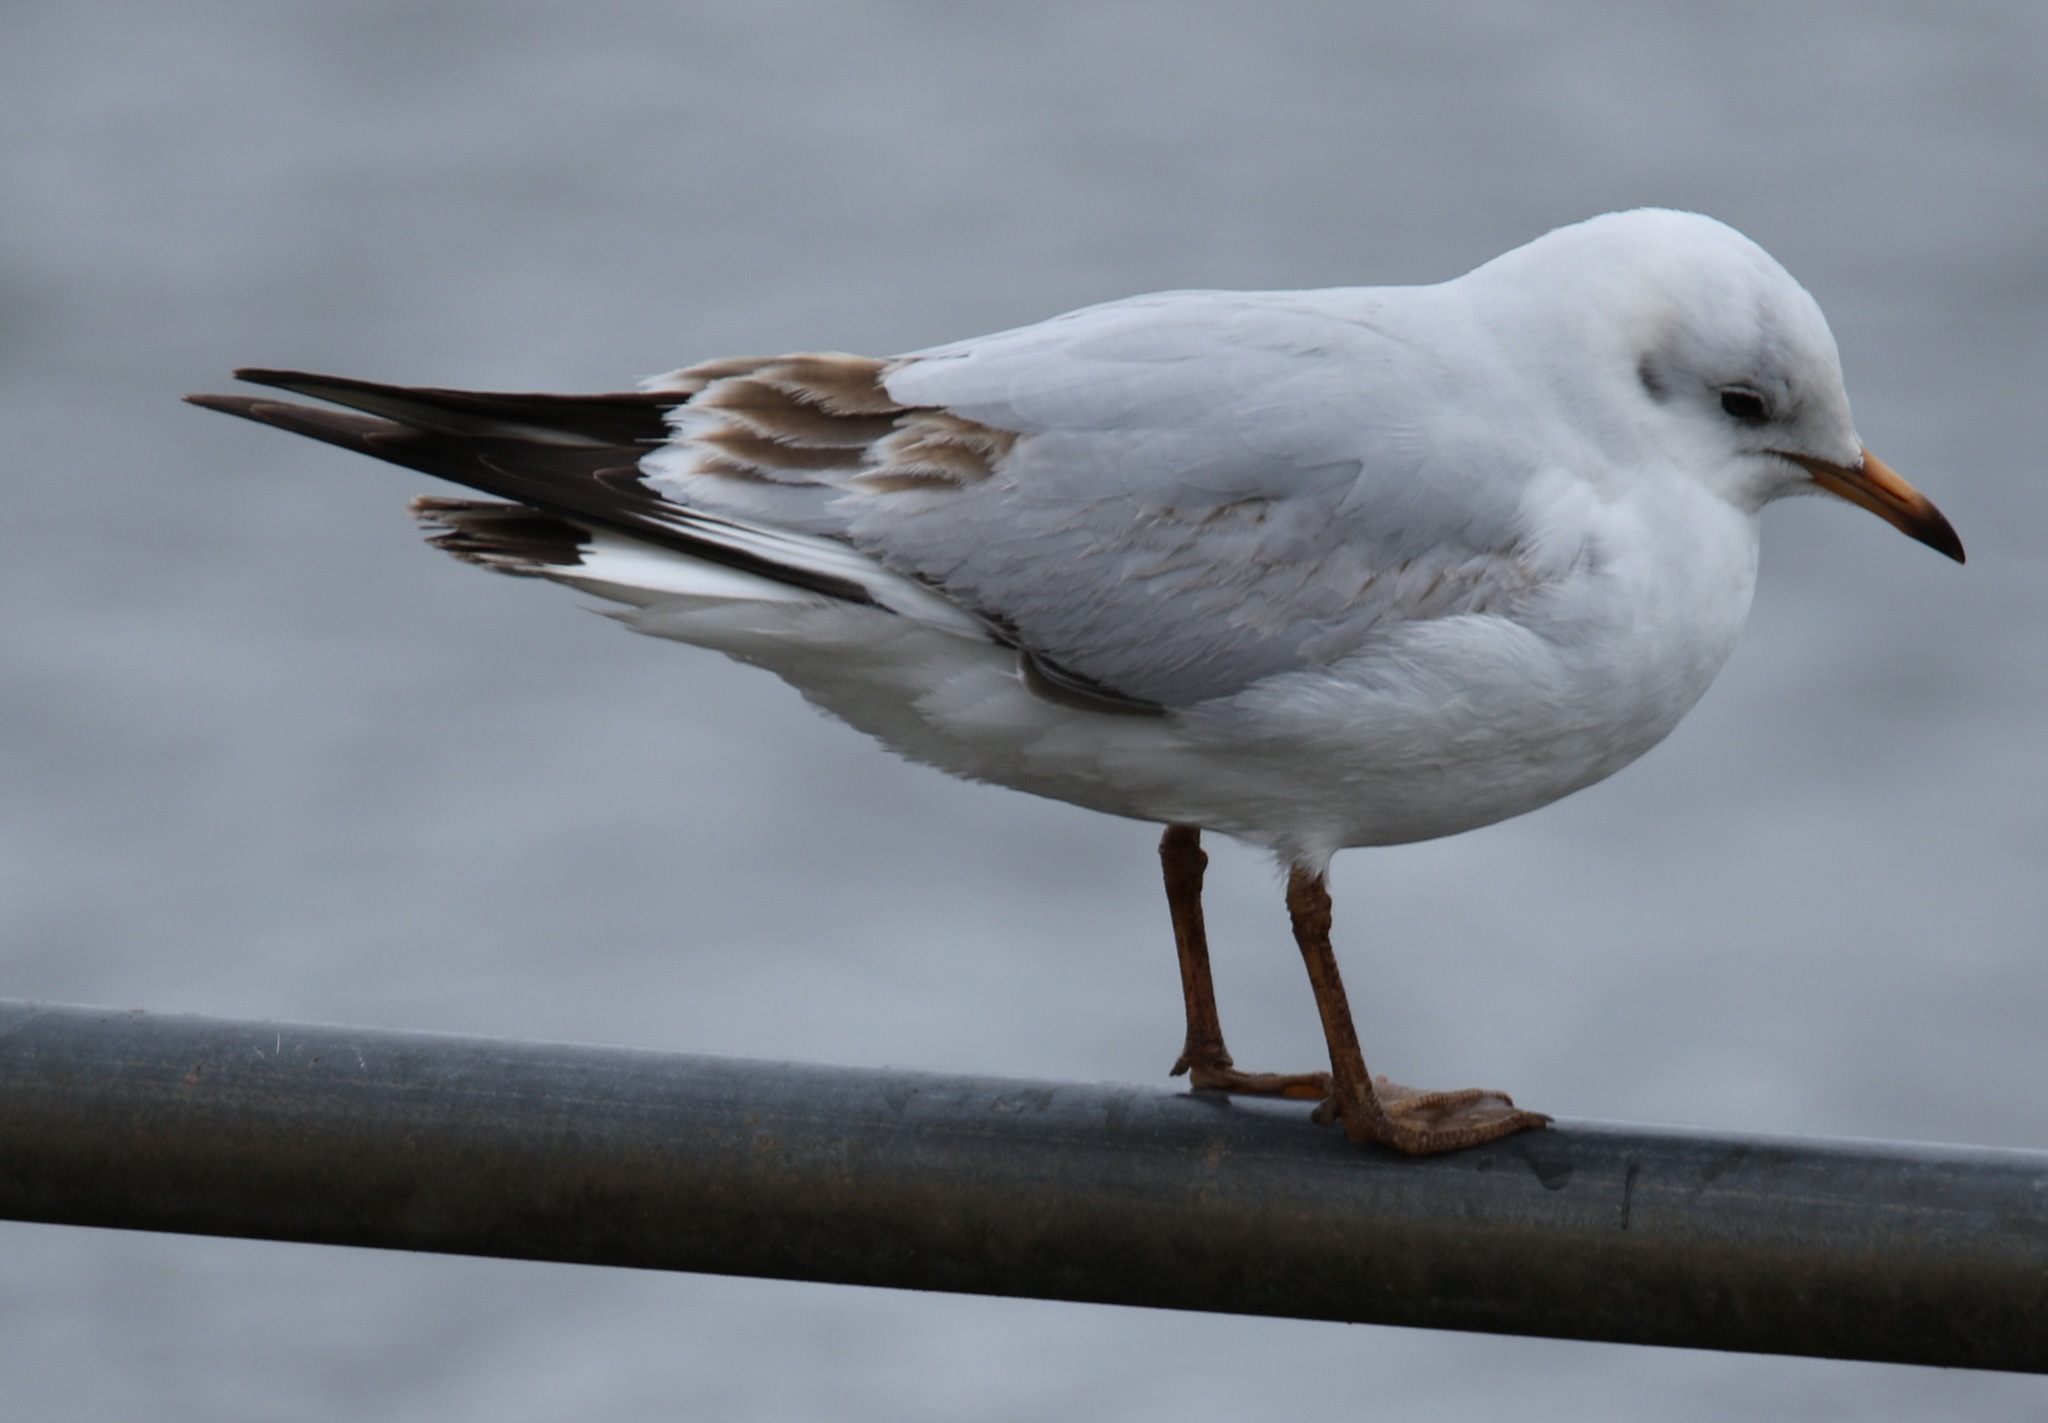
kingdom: Animalia
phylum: Chordata
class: Aves
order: Charadriiformes
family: Laridae
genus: Chroicocephalus
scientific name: Chroicocephalus ridibundus
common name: Black-headed gull
